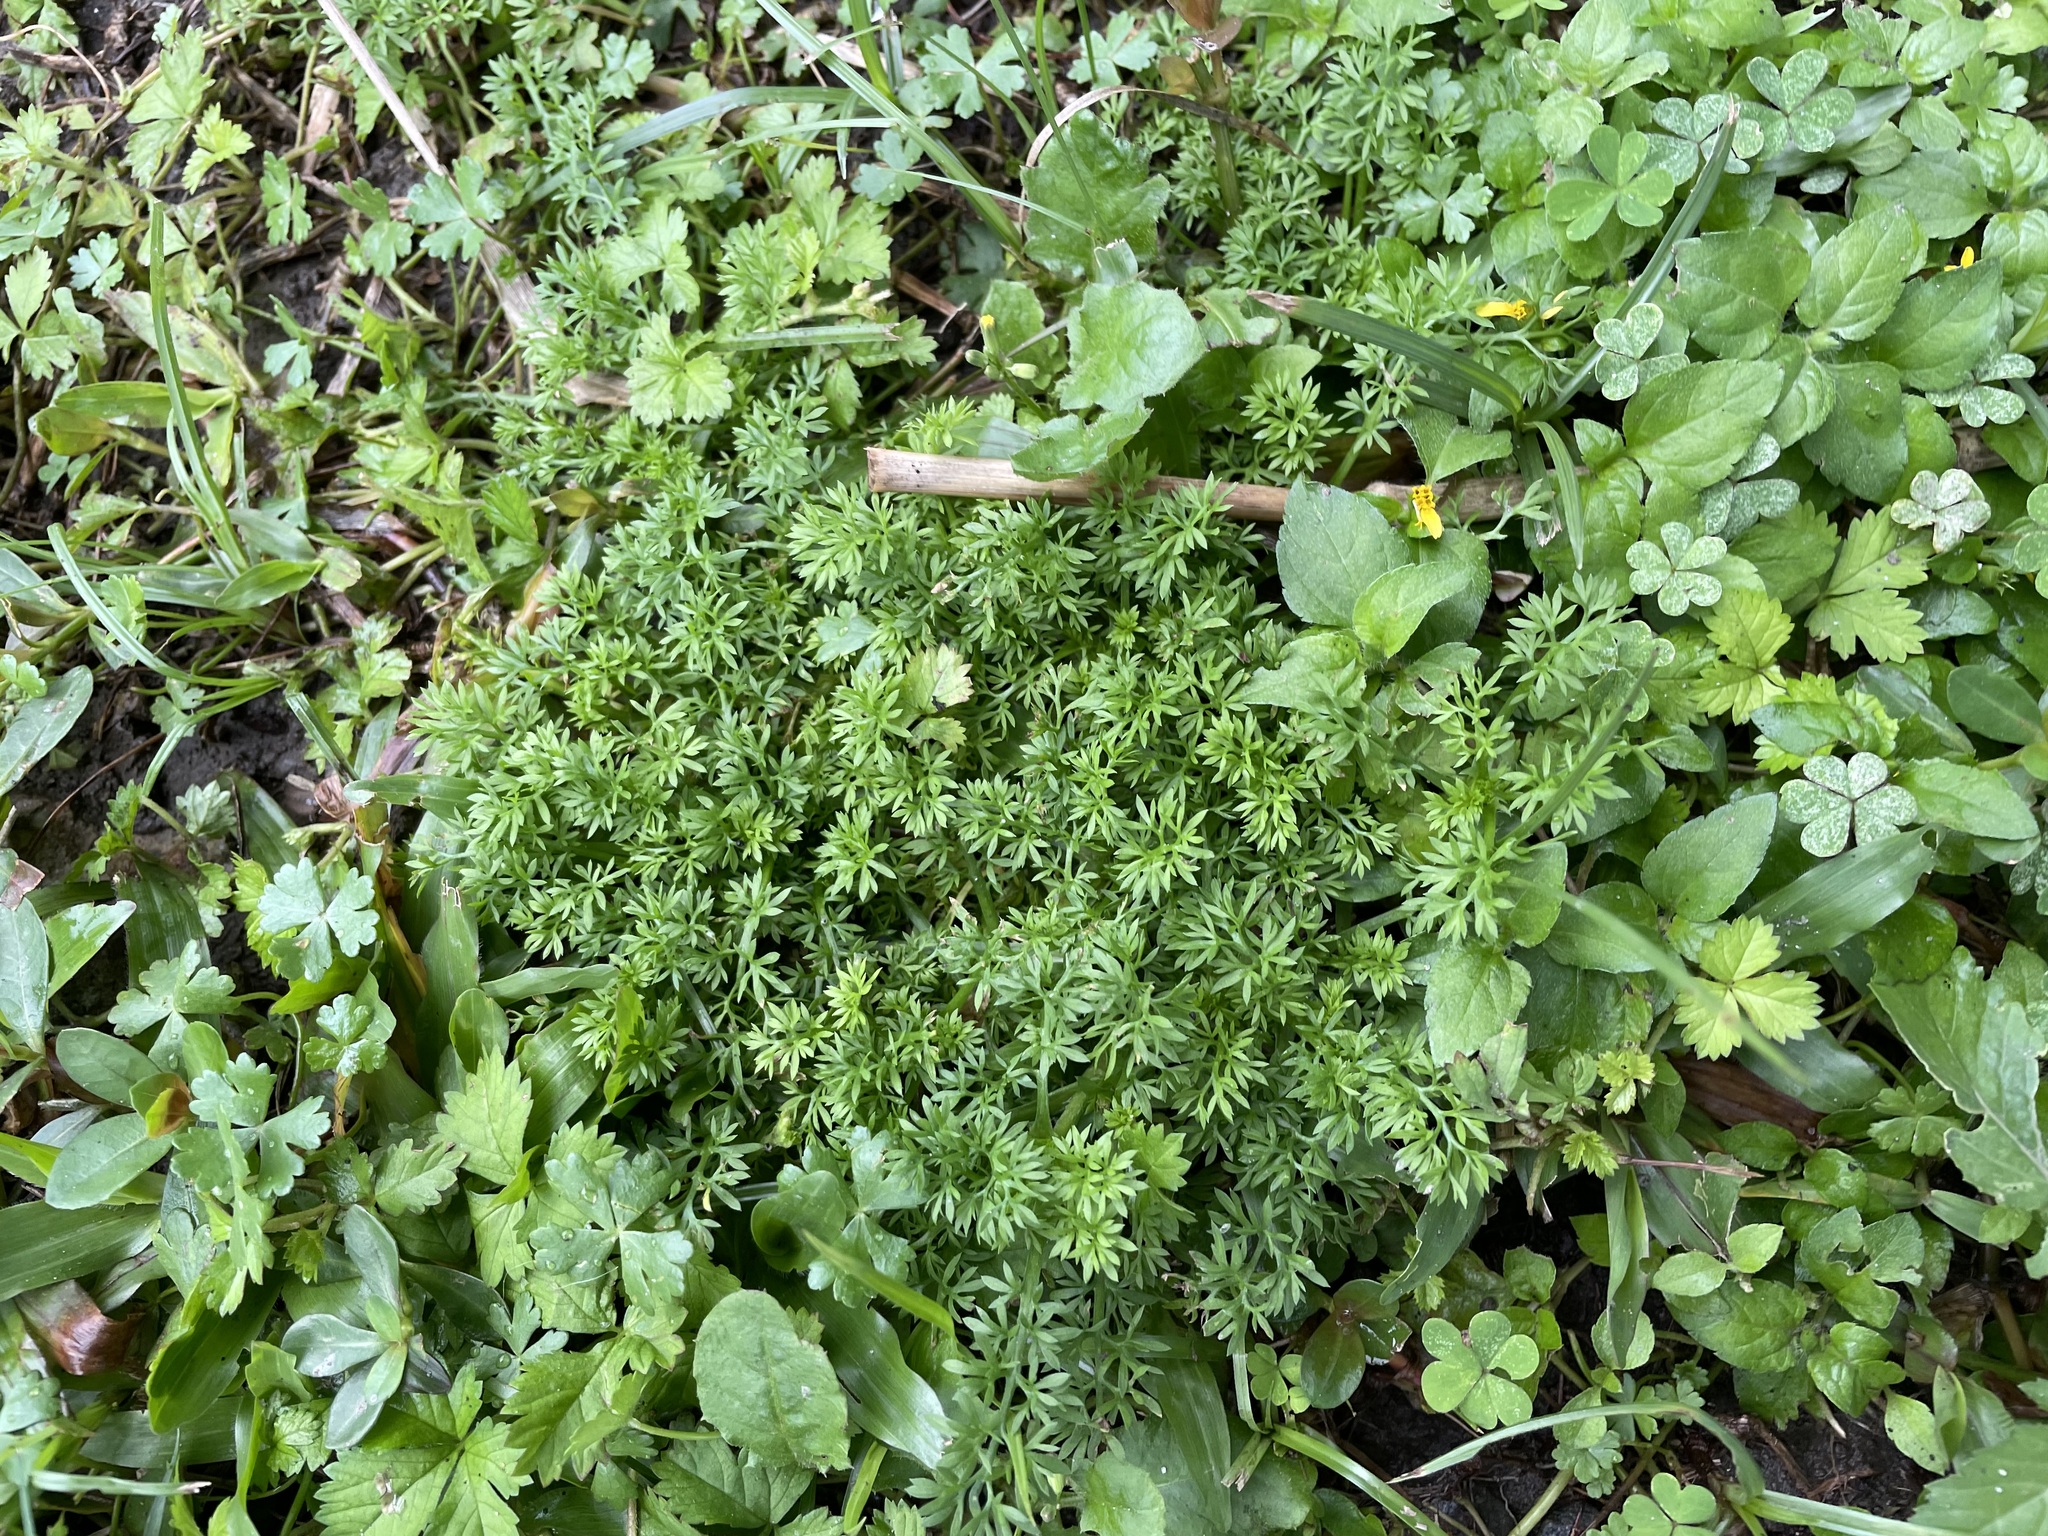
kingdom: Plantae
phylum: Tracheophyta
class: Magnoliopsida
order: Asterales
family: Asteraceae
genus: Soliva
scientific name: Soliva anthemifolia
